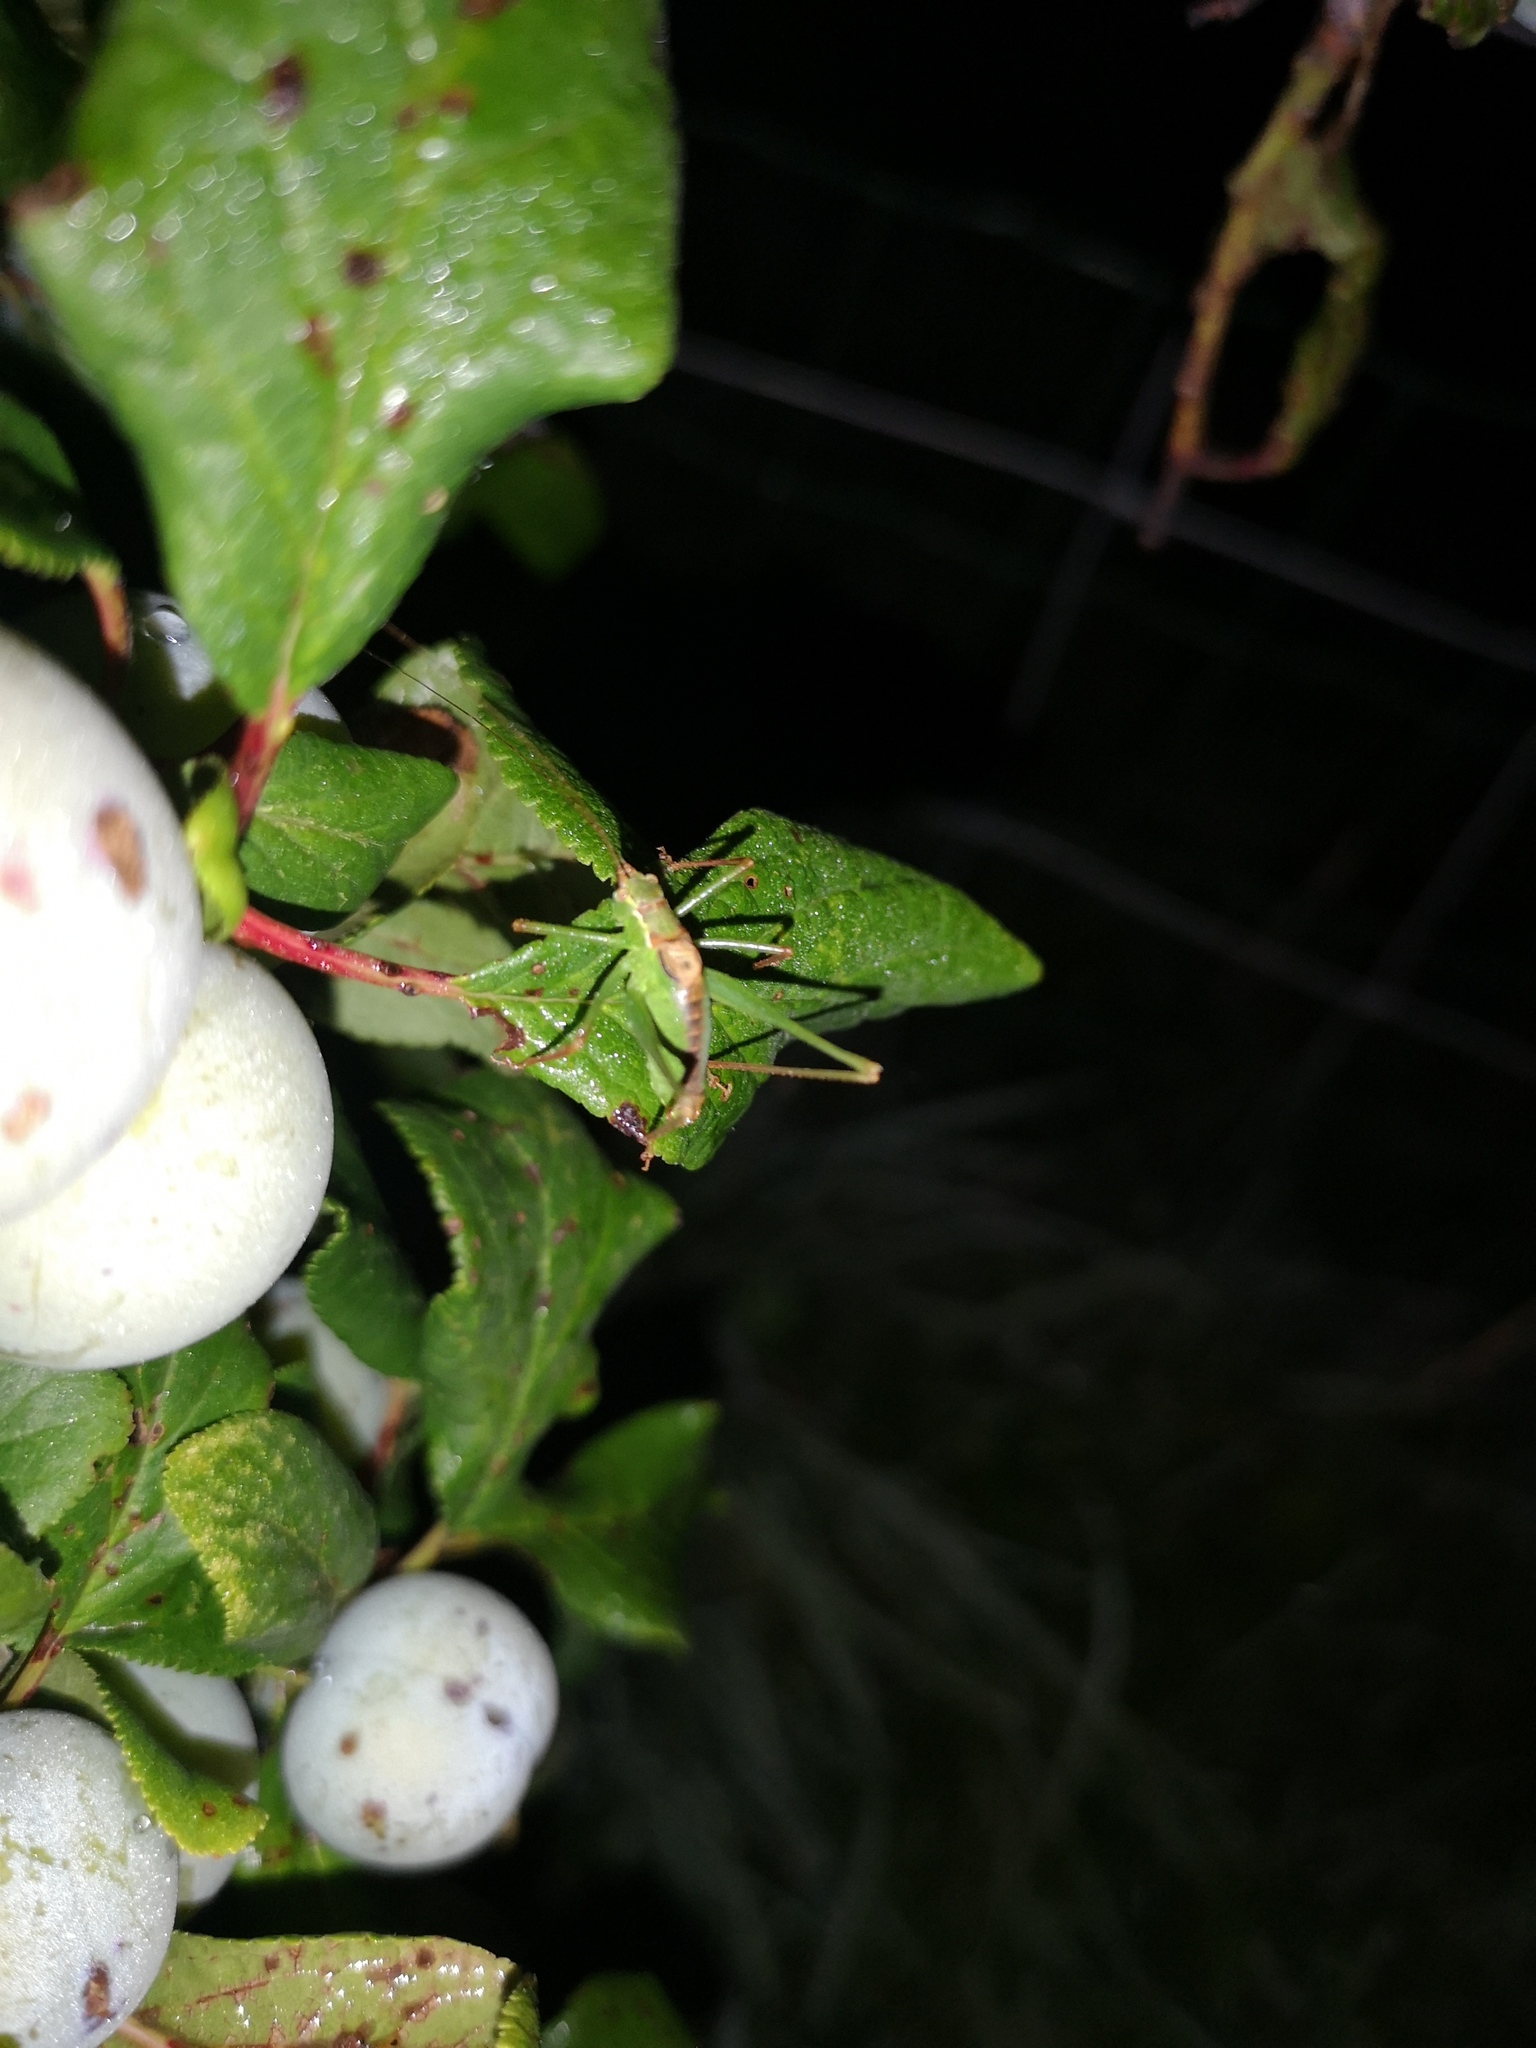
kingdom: Animalia
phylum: Arthropoda
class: Insecta
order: Orthoptera
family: Tettigoniidae
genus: Leptophyes
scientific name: Leptophyes punctatissima
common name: Speckled bush-cricket
